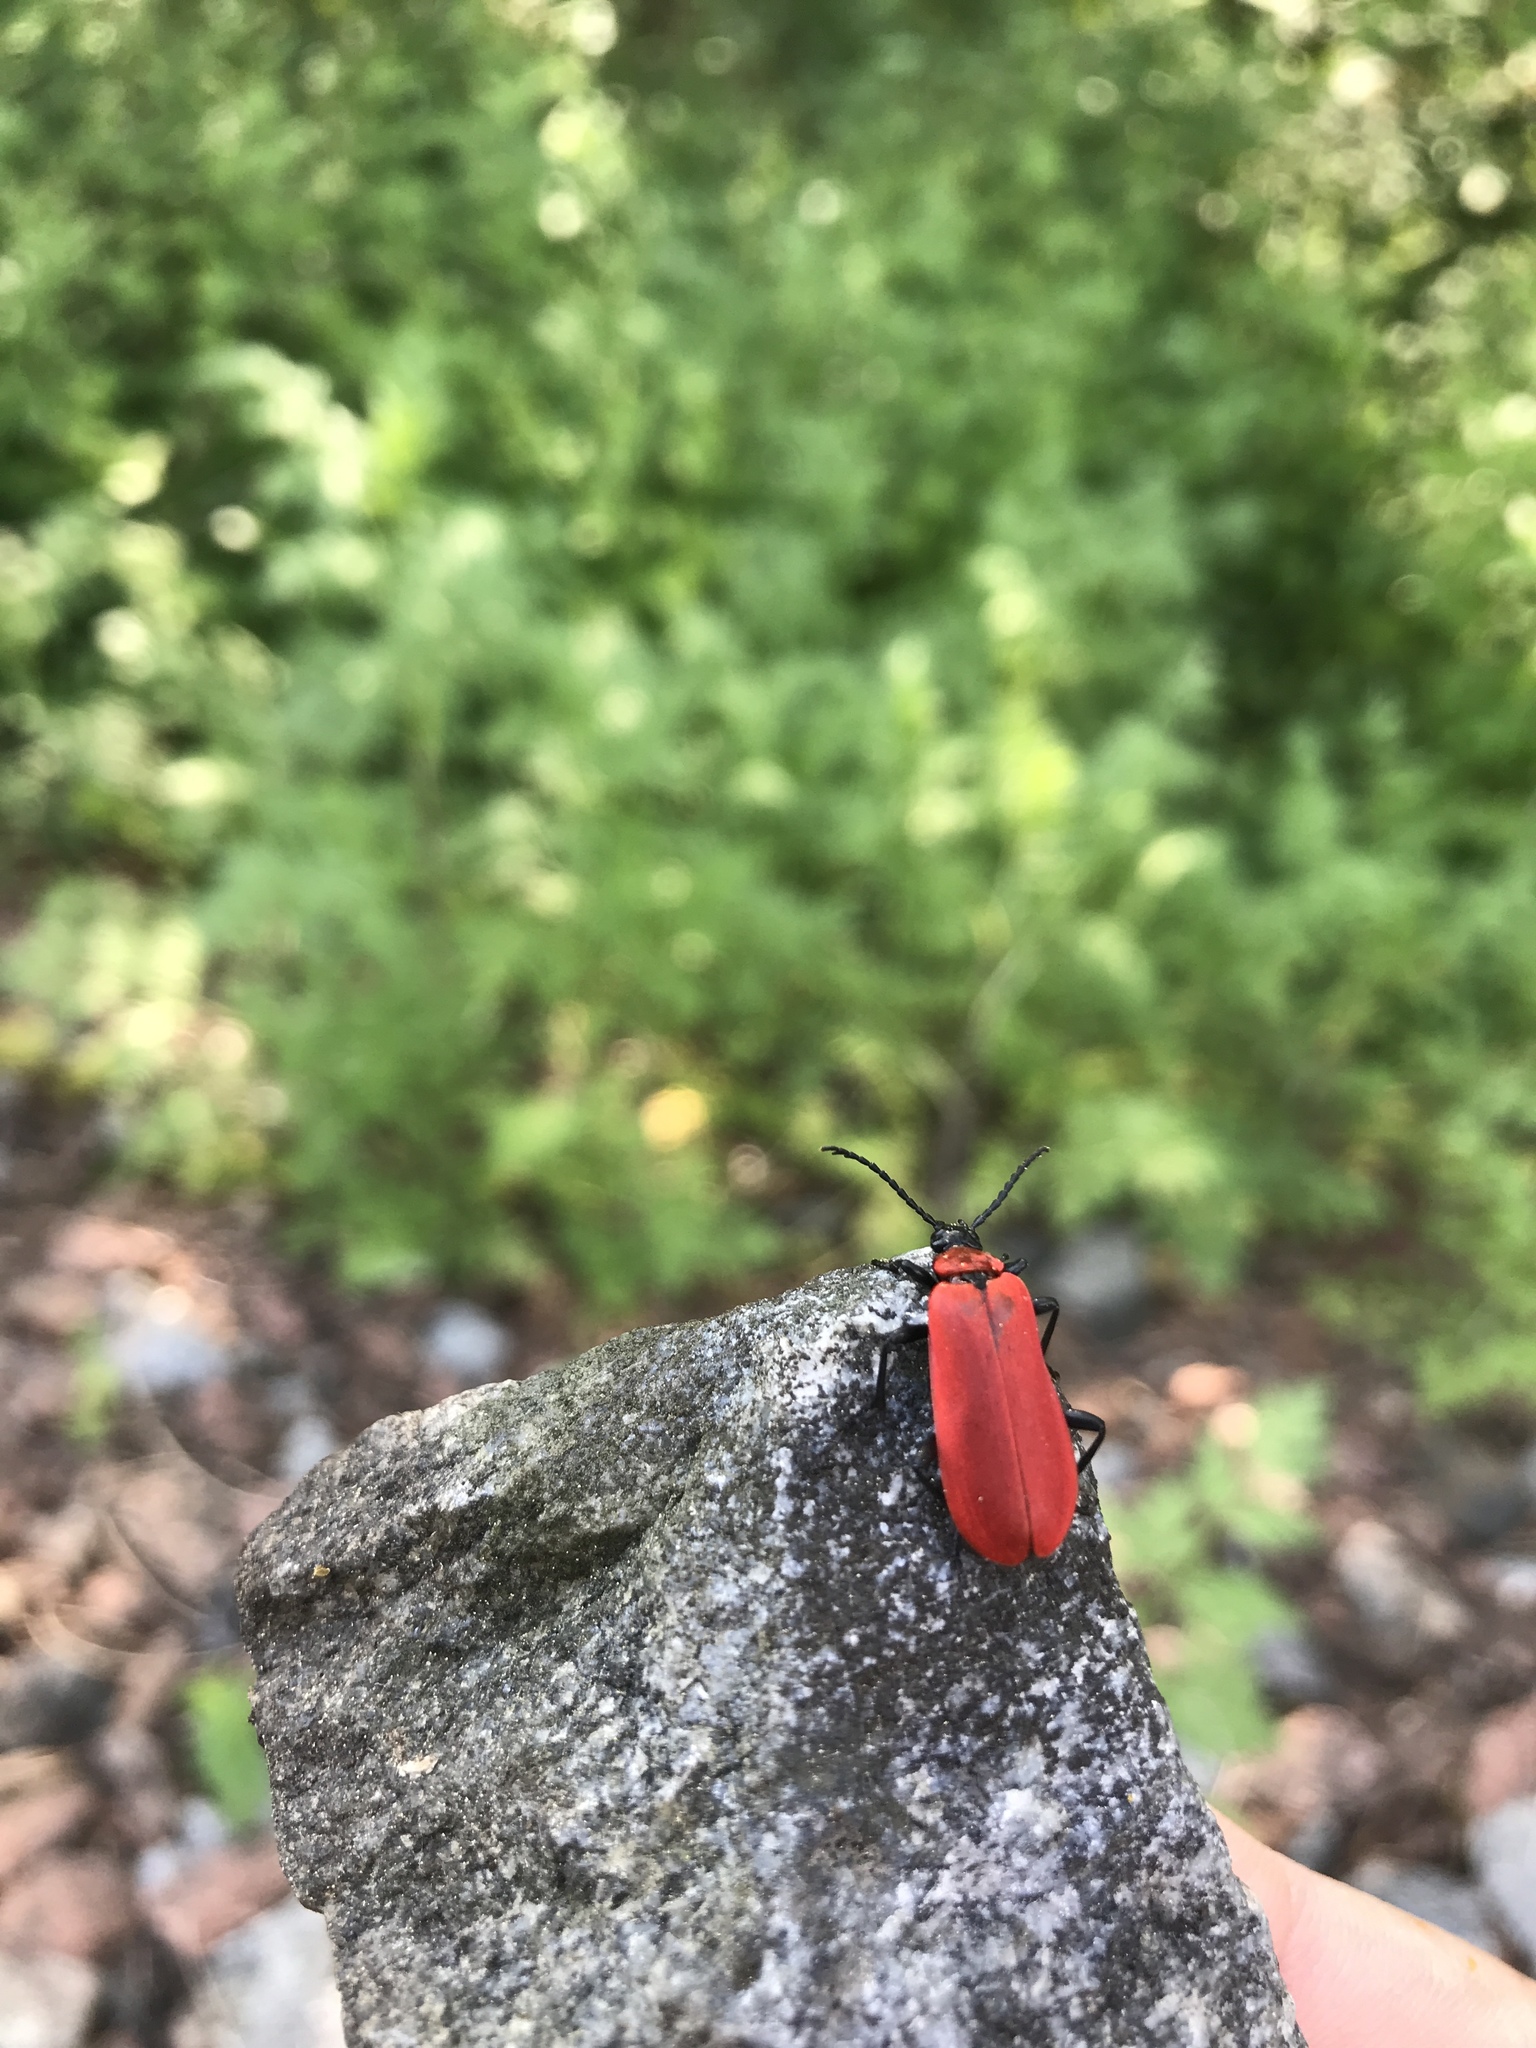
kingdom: Animalia
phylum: Arthropoda
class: Insecta
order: Coleoptera
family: Pyrochroidae
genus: Pyrochroa
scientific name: Pyrochroa coccinea
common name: Black-headed cardinal beetle
